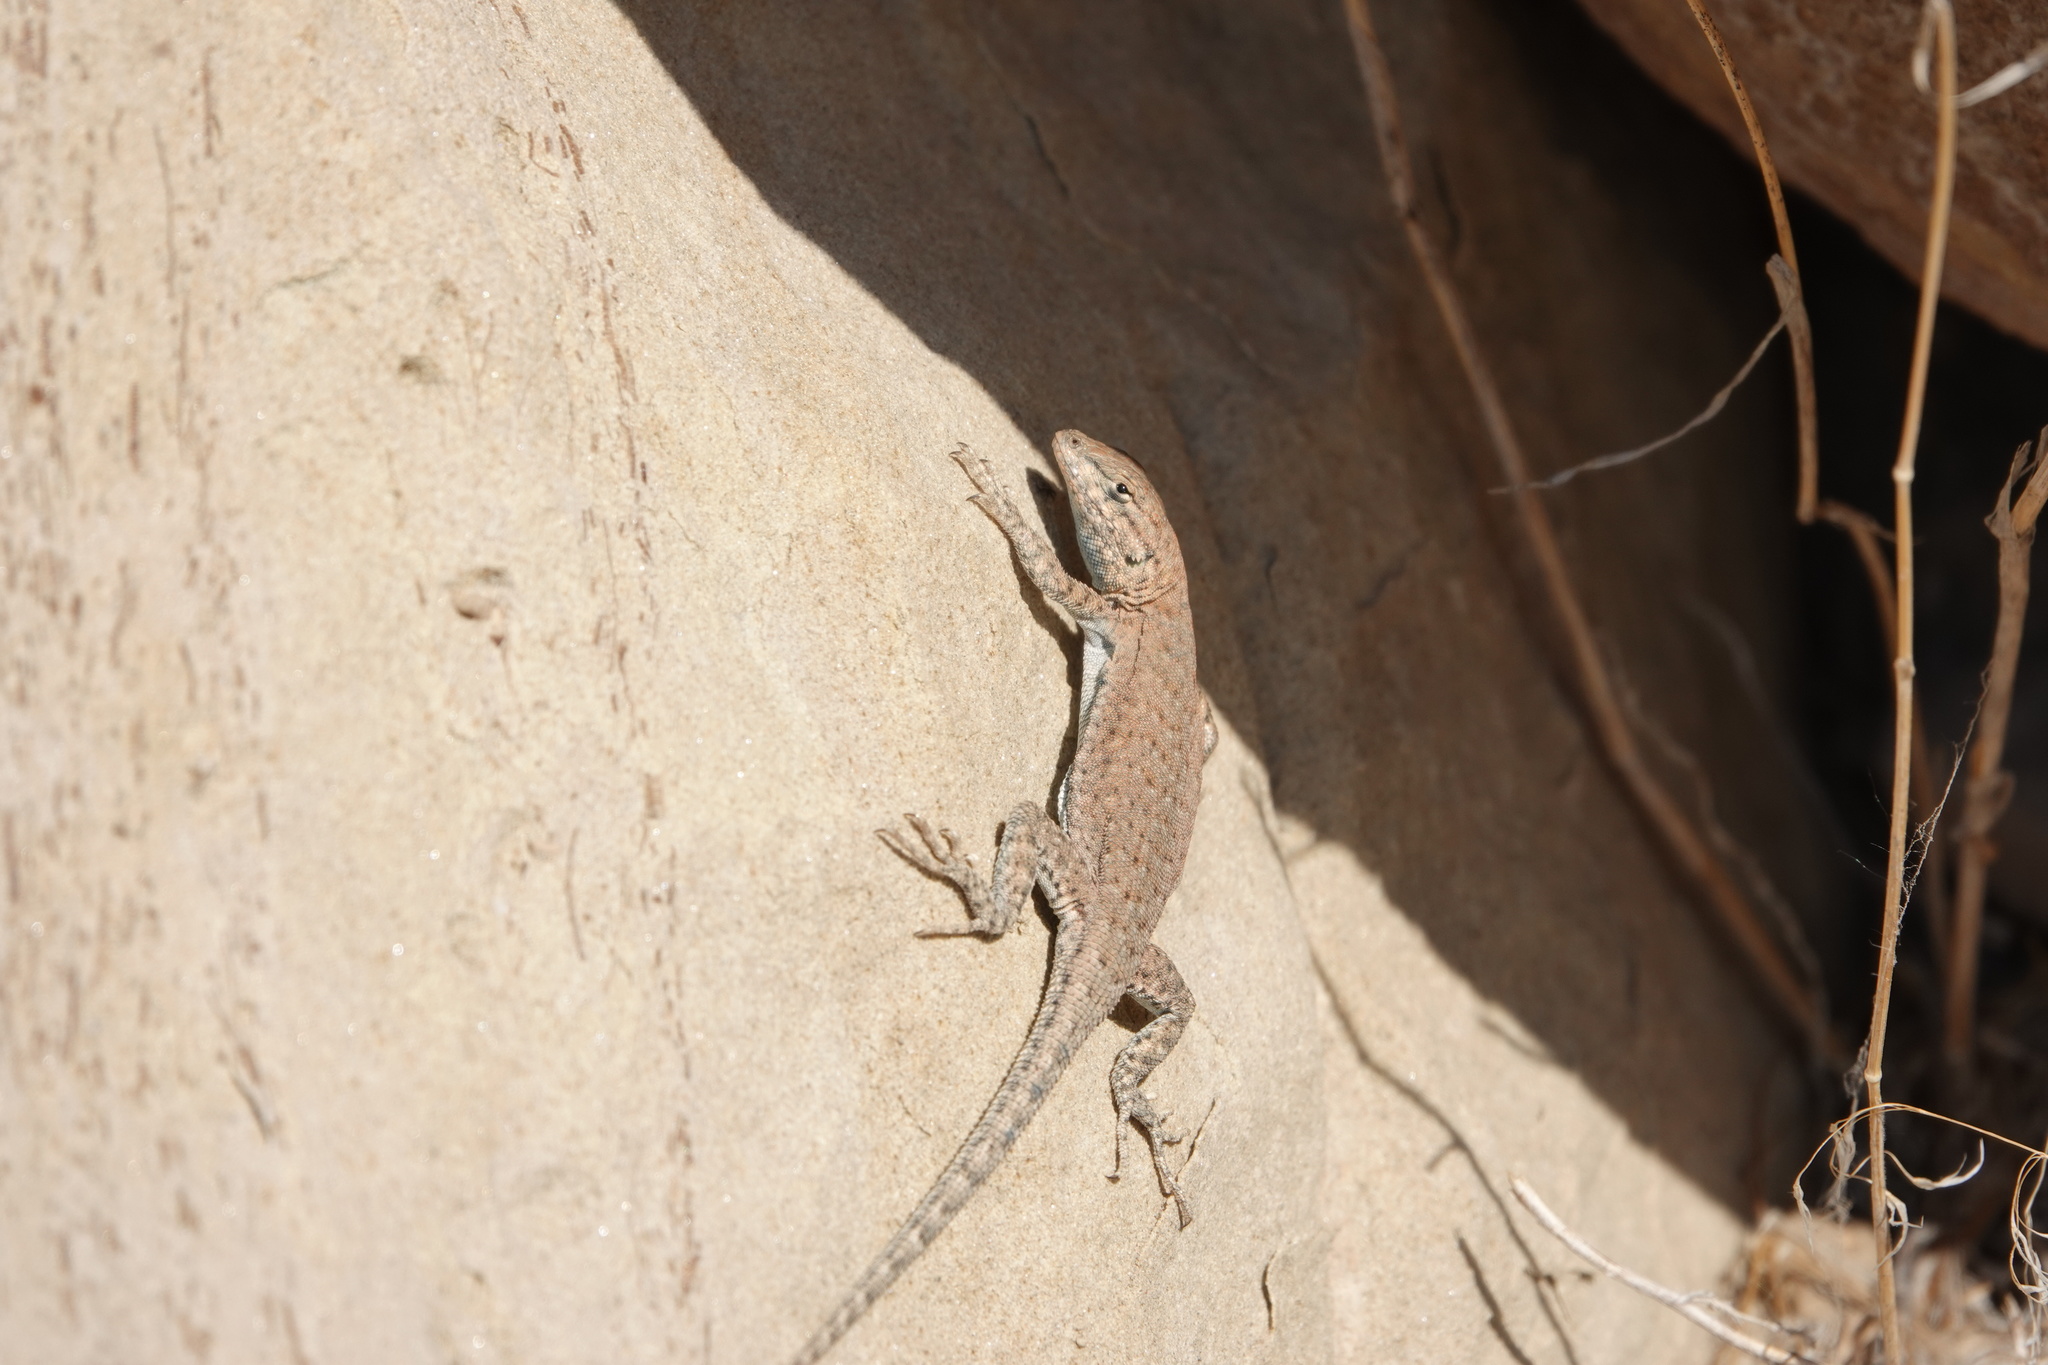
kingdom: Animalia
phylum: Chordata
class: Squamata
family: Phrynosomatidae
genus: Uta
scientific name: Uta stansburiana
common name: Side-blotched lizard
